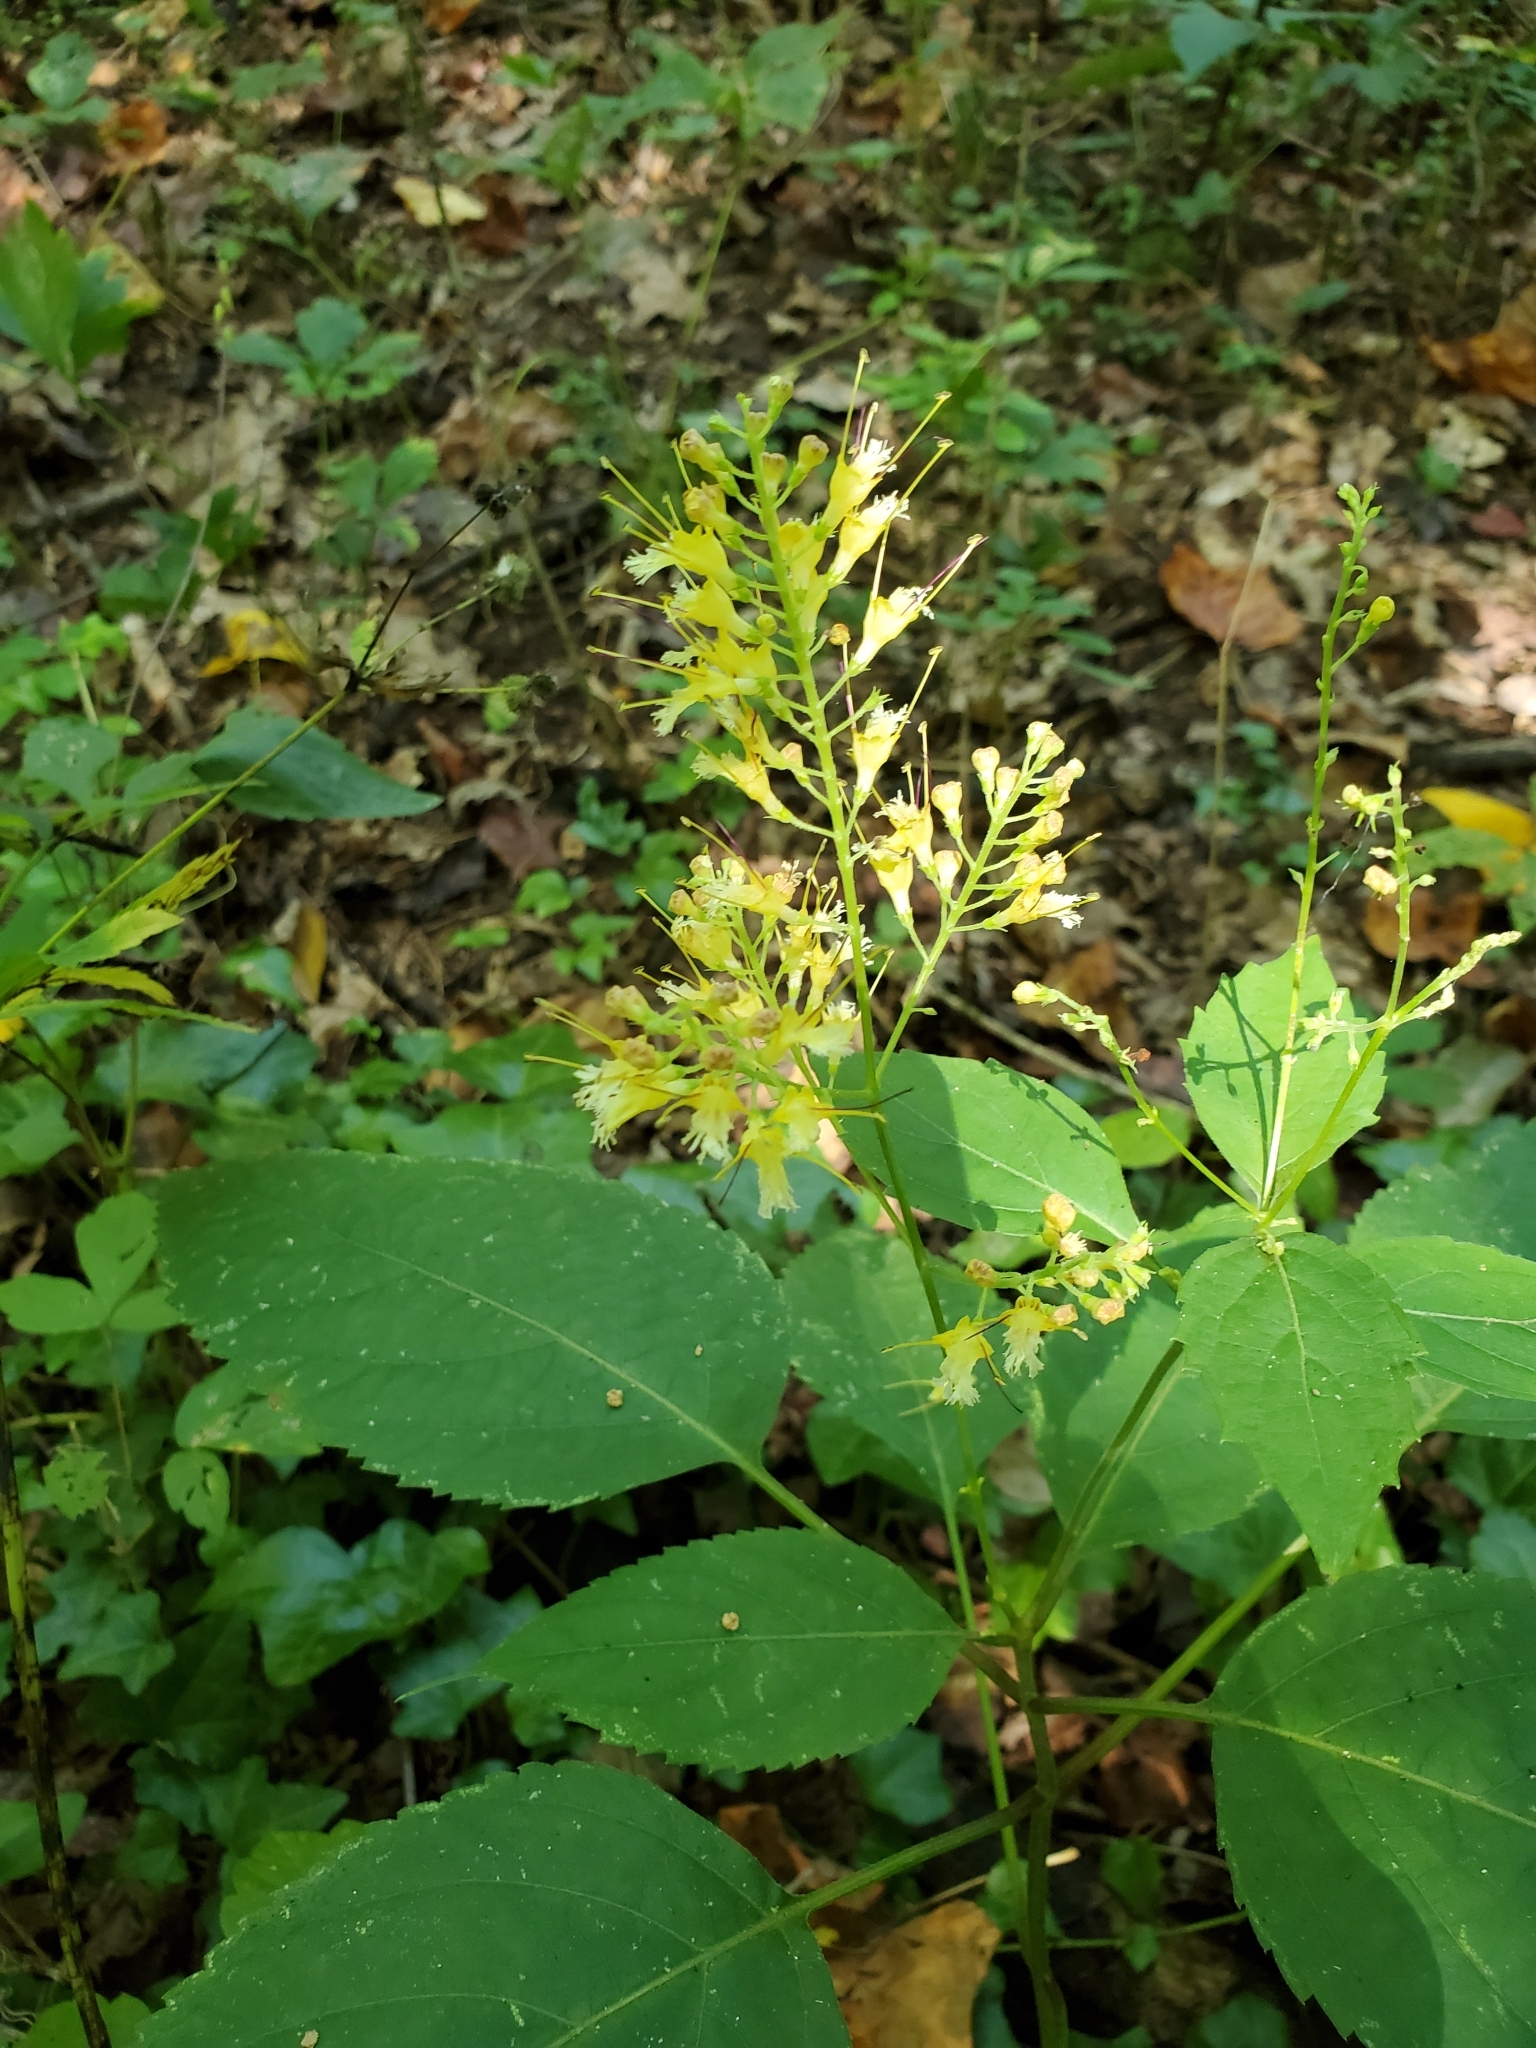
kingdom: Plantae
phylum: Tracheophyta
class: Magnoliopsida
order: Lamiales
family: Lamiaceae
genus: Collinsonia
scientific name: Collinsonia canadensis
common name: Northern horsebalm
